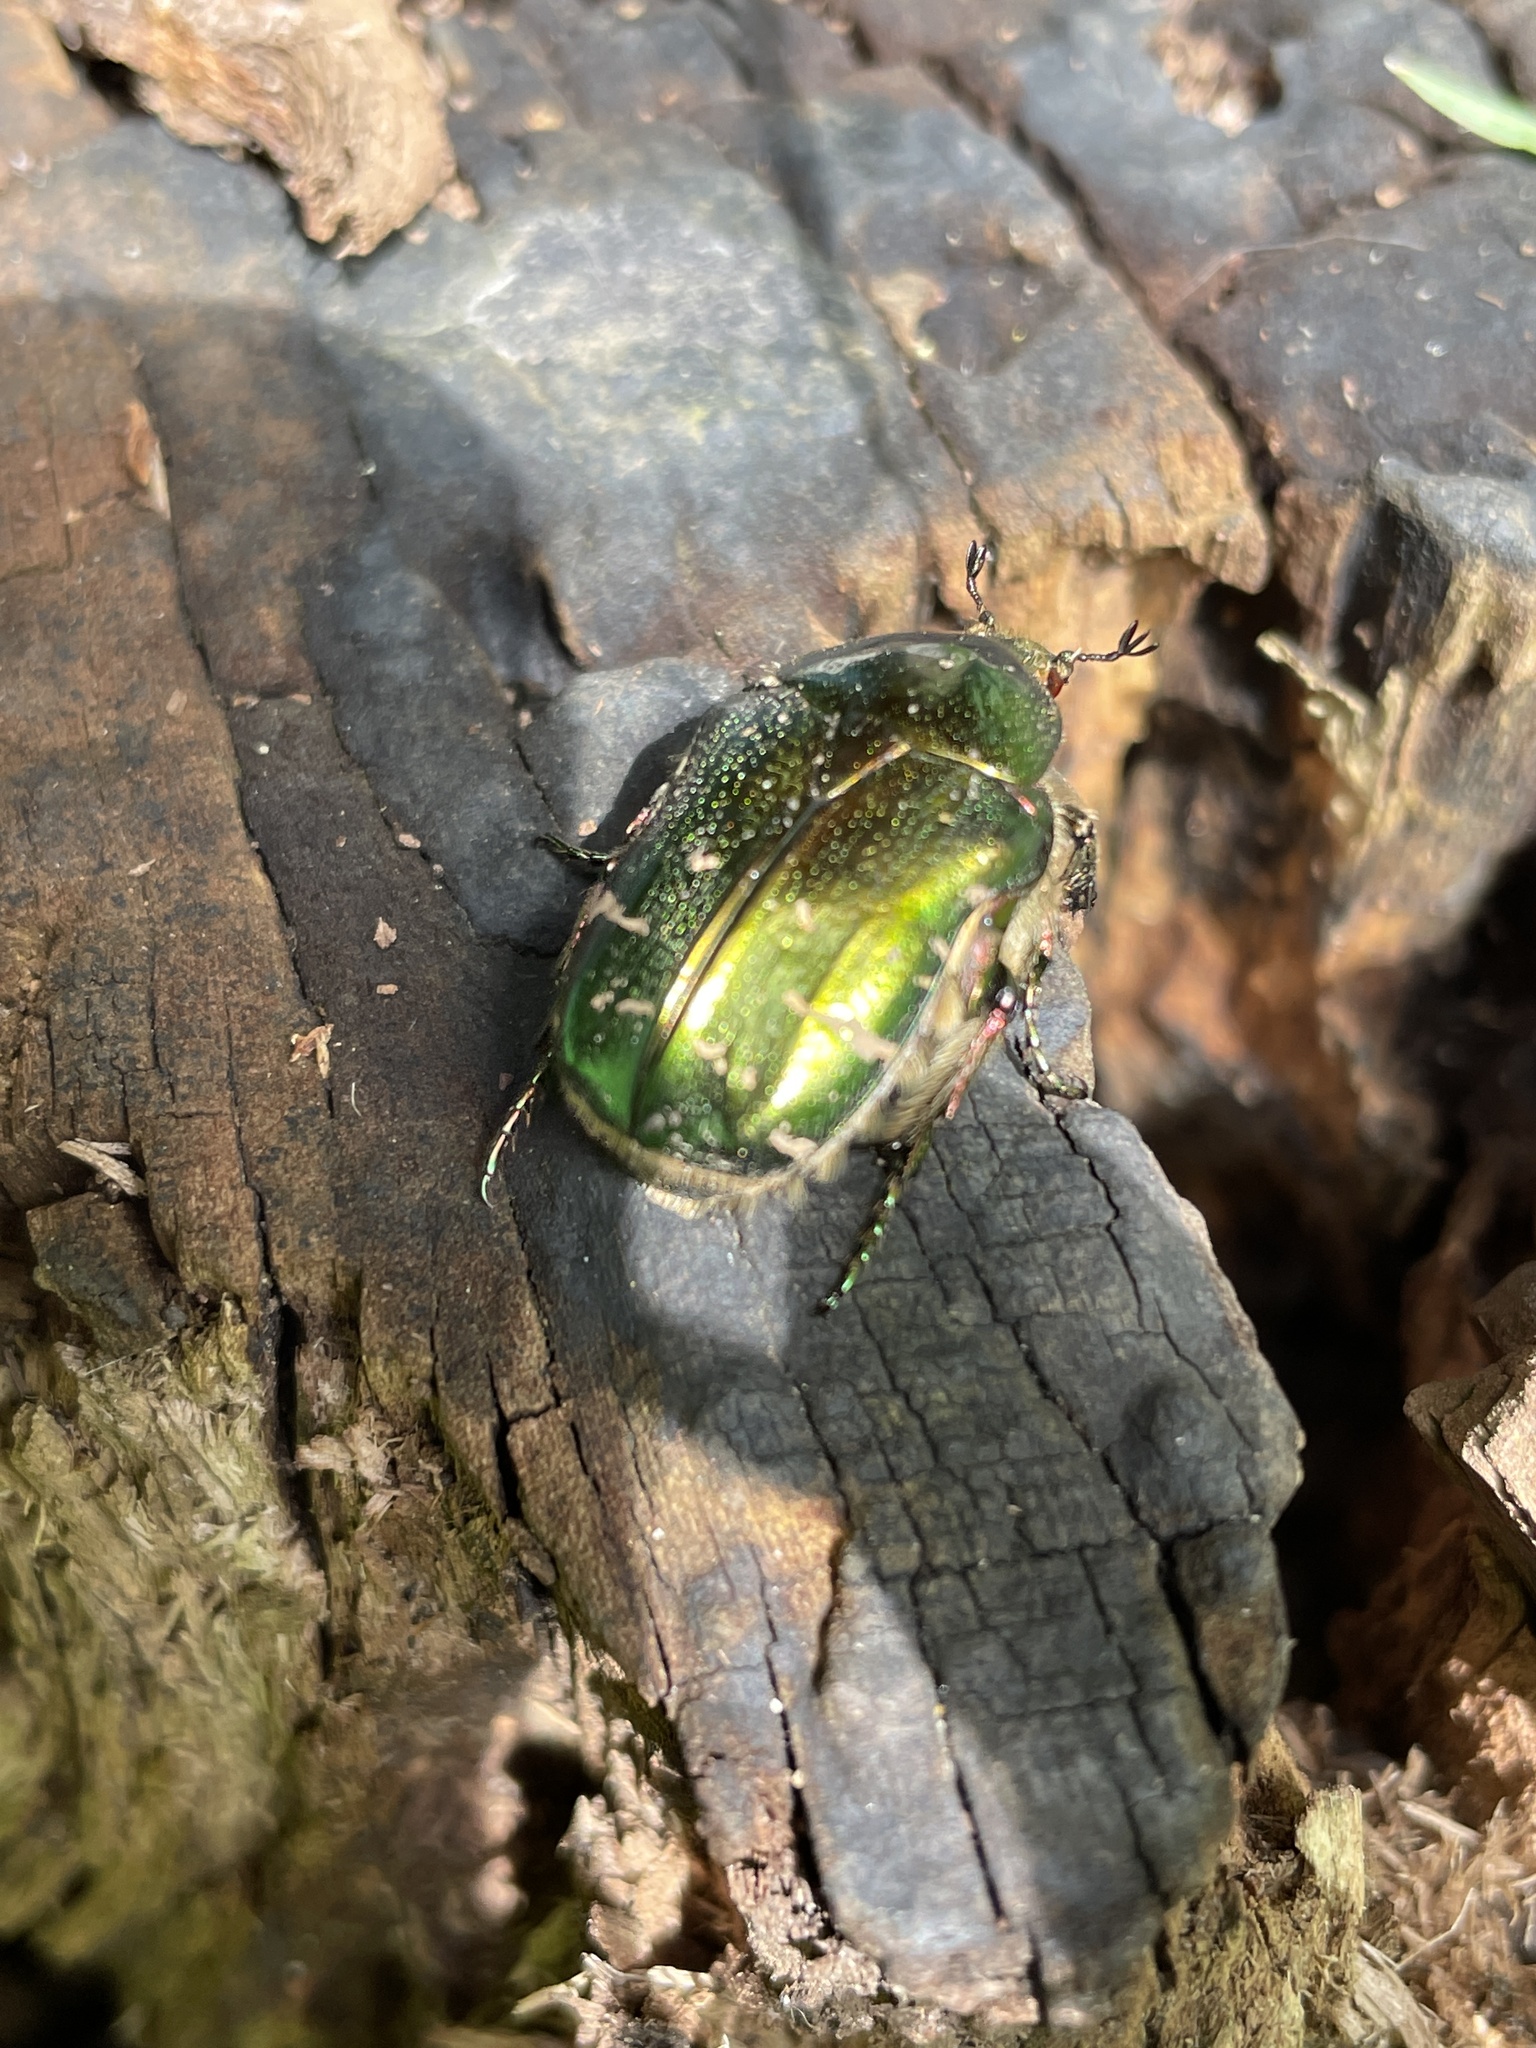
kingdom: Animalia
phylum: Arthropoda
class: Insecta
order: Coleoptera
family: Scarabaeidae
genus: Cetonia
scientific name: Cetonia aurata
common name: Rose chafer
